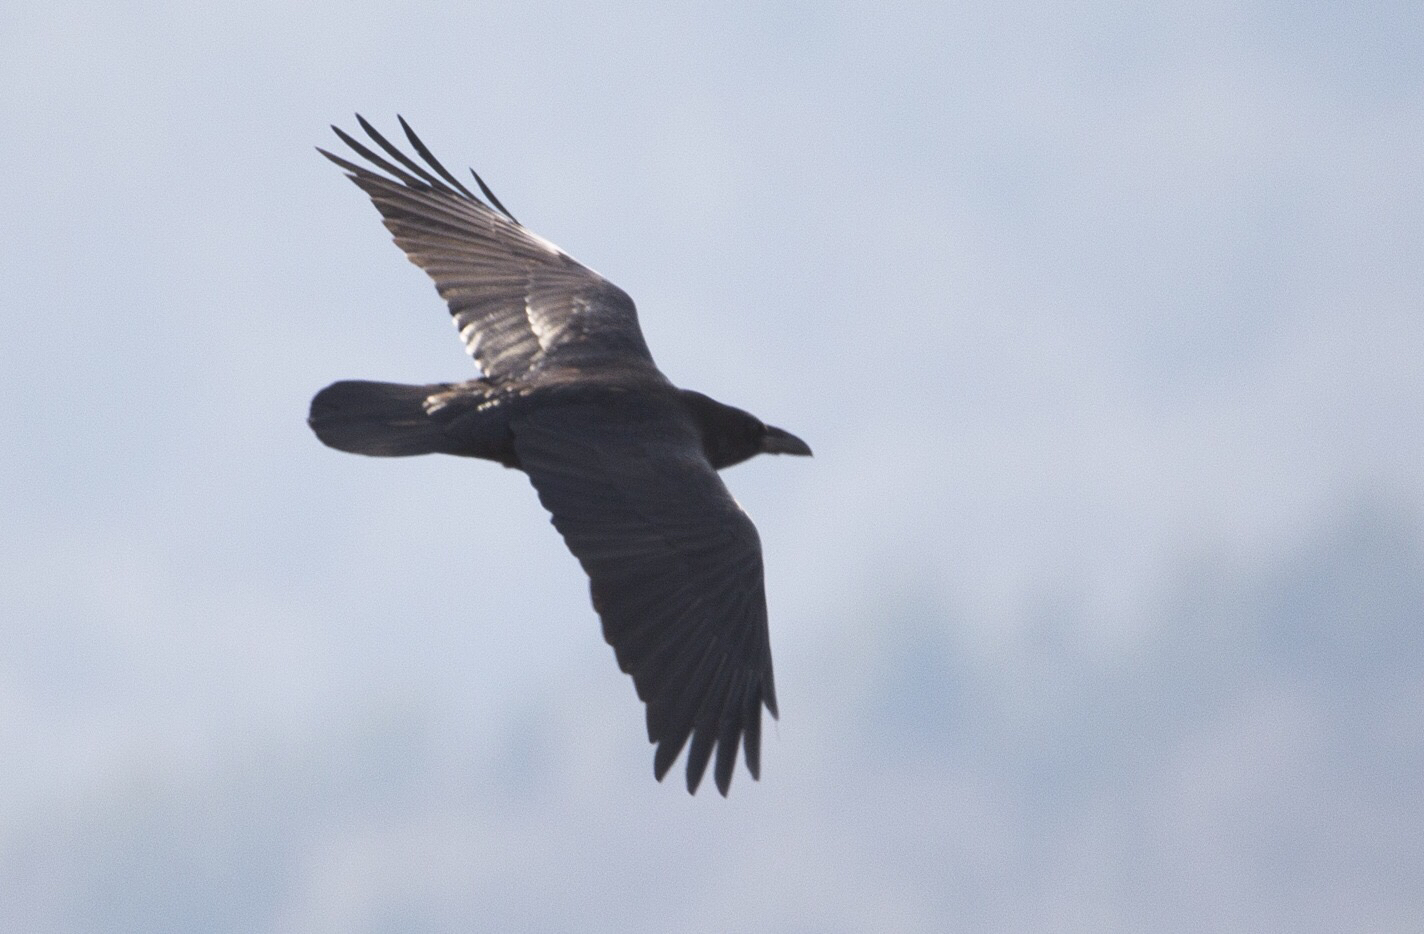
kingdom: Animalia
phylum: Chordata
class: Aves
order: Passeriformes
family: Corvidae
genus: Corvus
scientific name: Corvus corax
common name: Common raven
